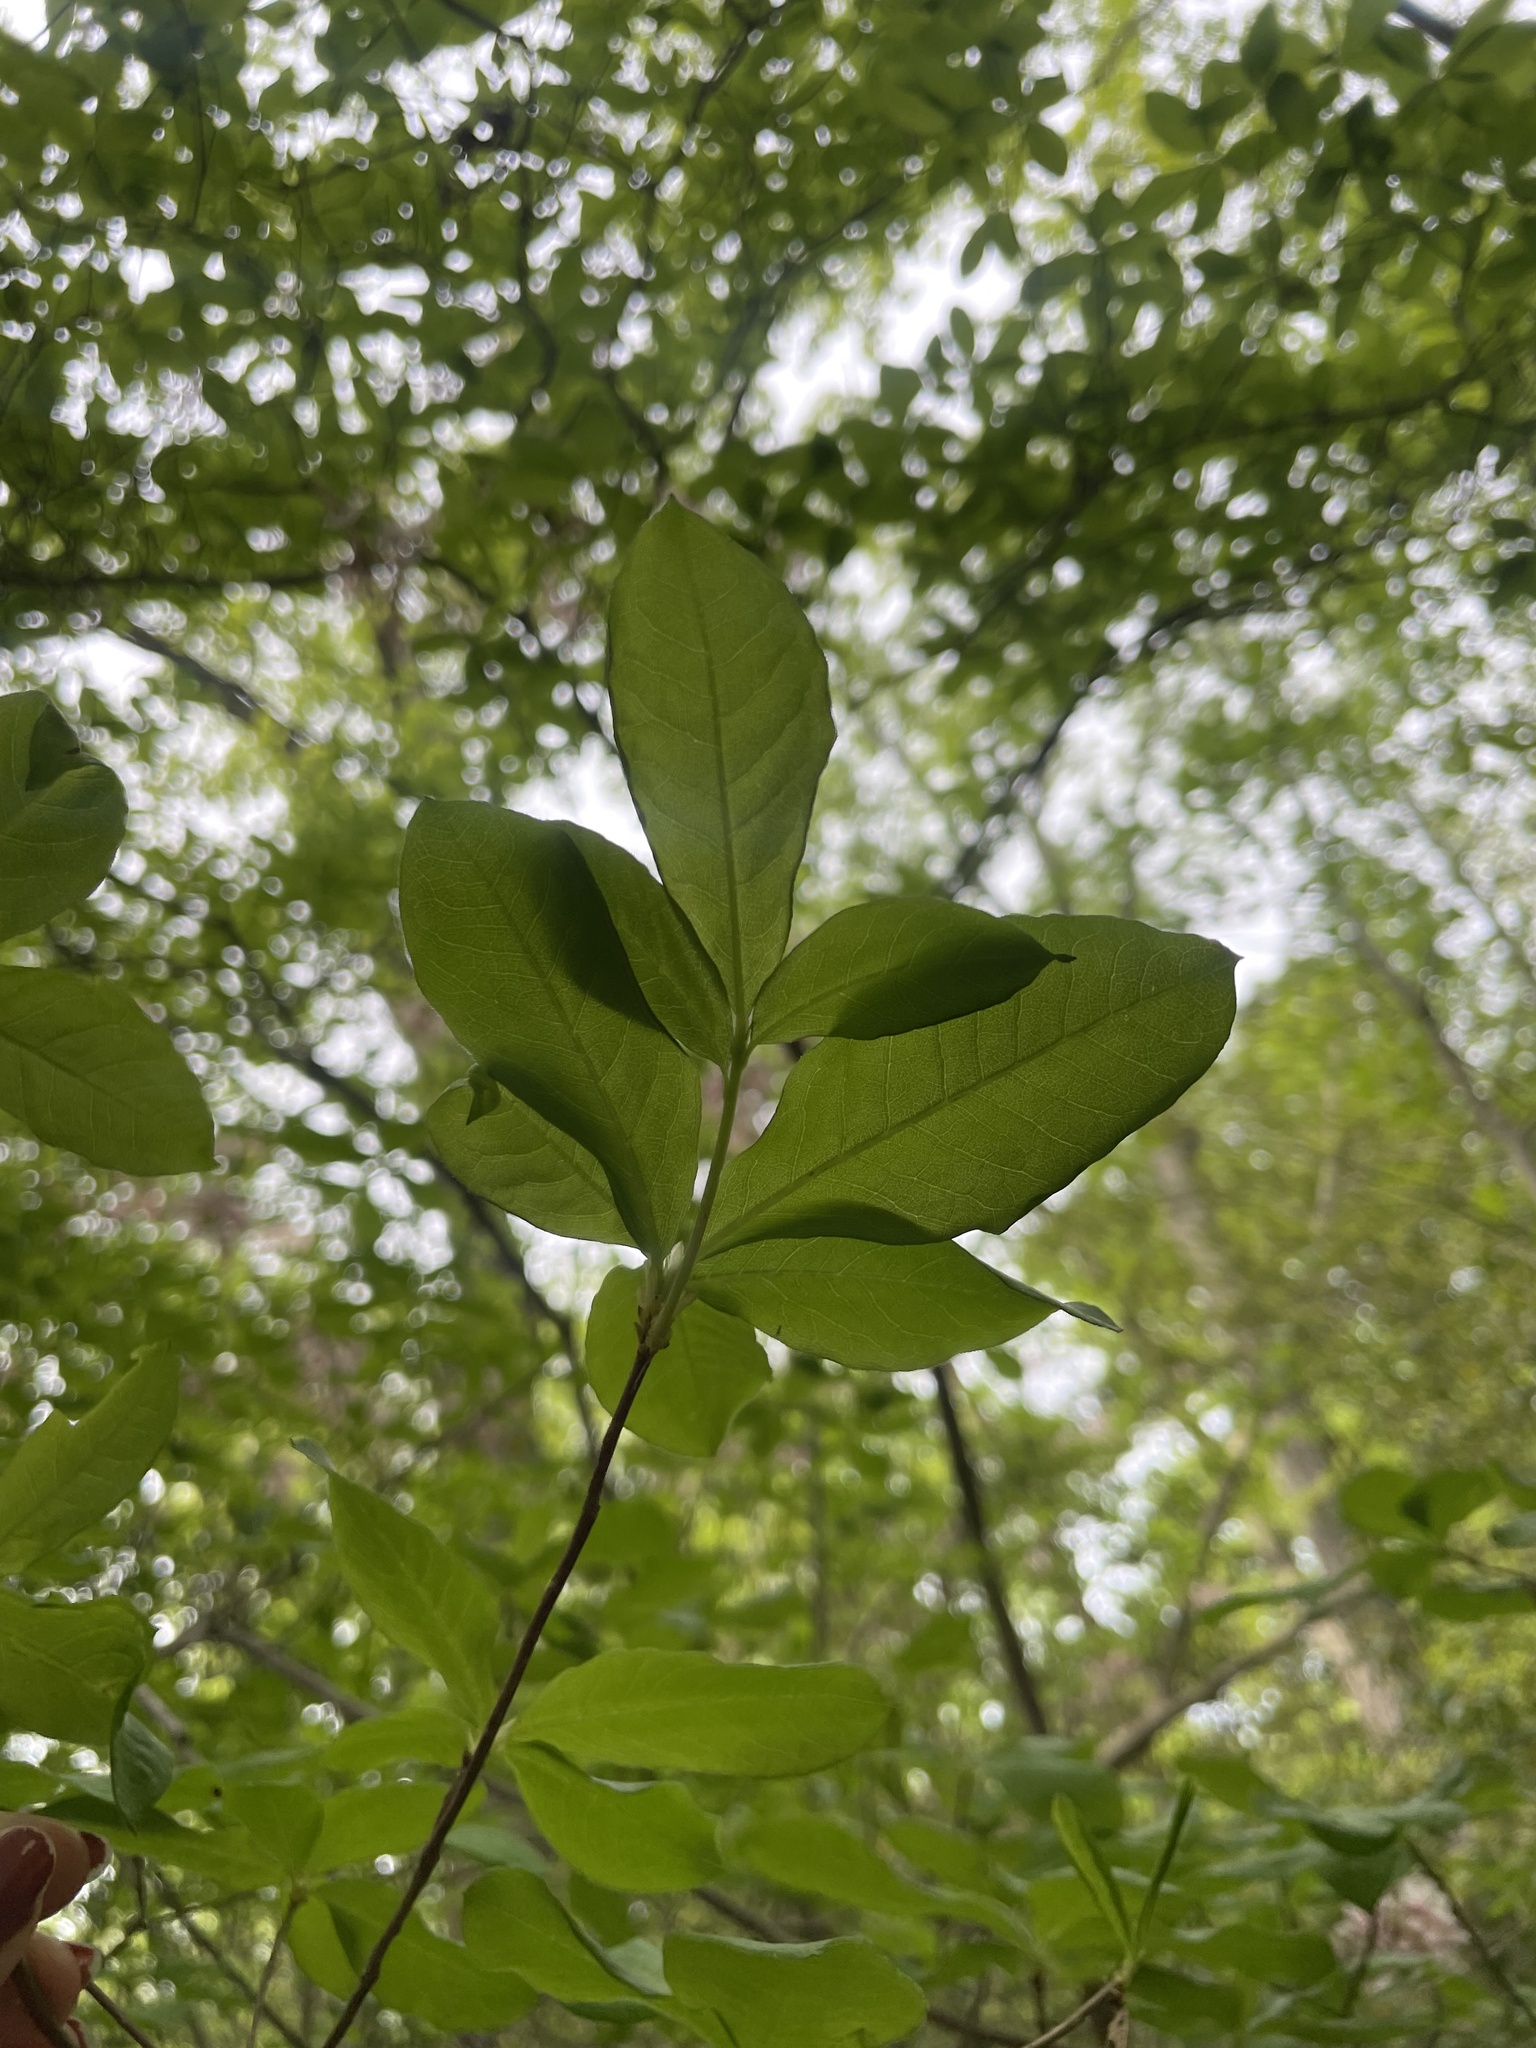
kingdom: Plantae
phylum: Tracheophyta
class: Magnoliopsida
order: Ericales
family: Ericaceae
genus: Rhododendron
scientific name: Rhododendron periclymenoides
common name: Election-pink
